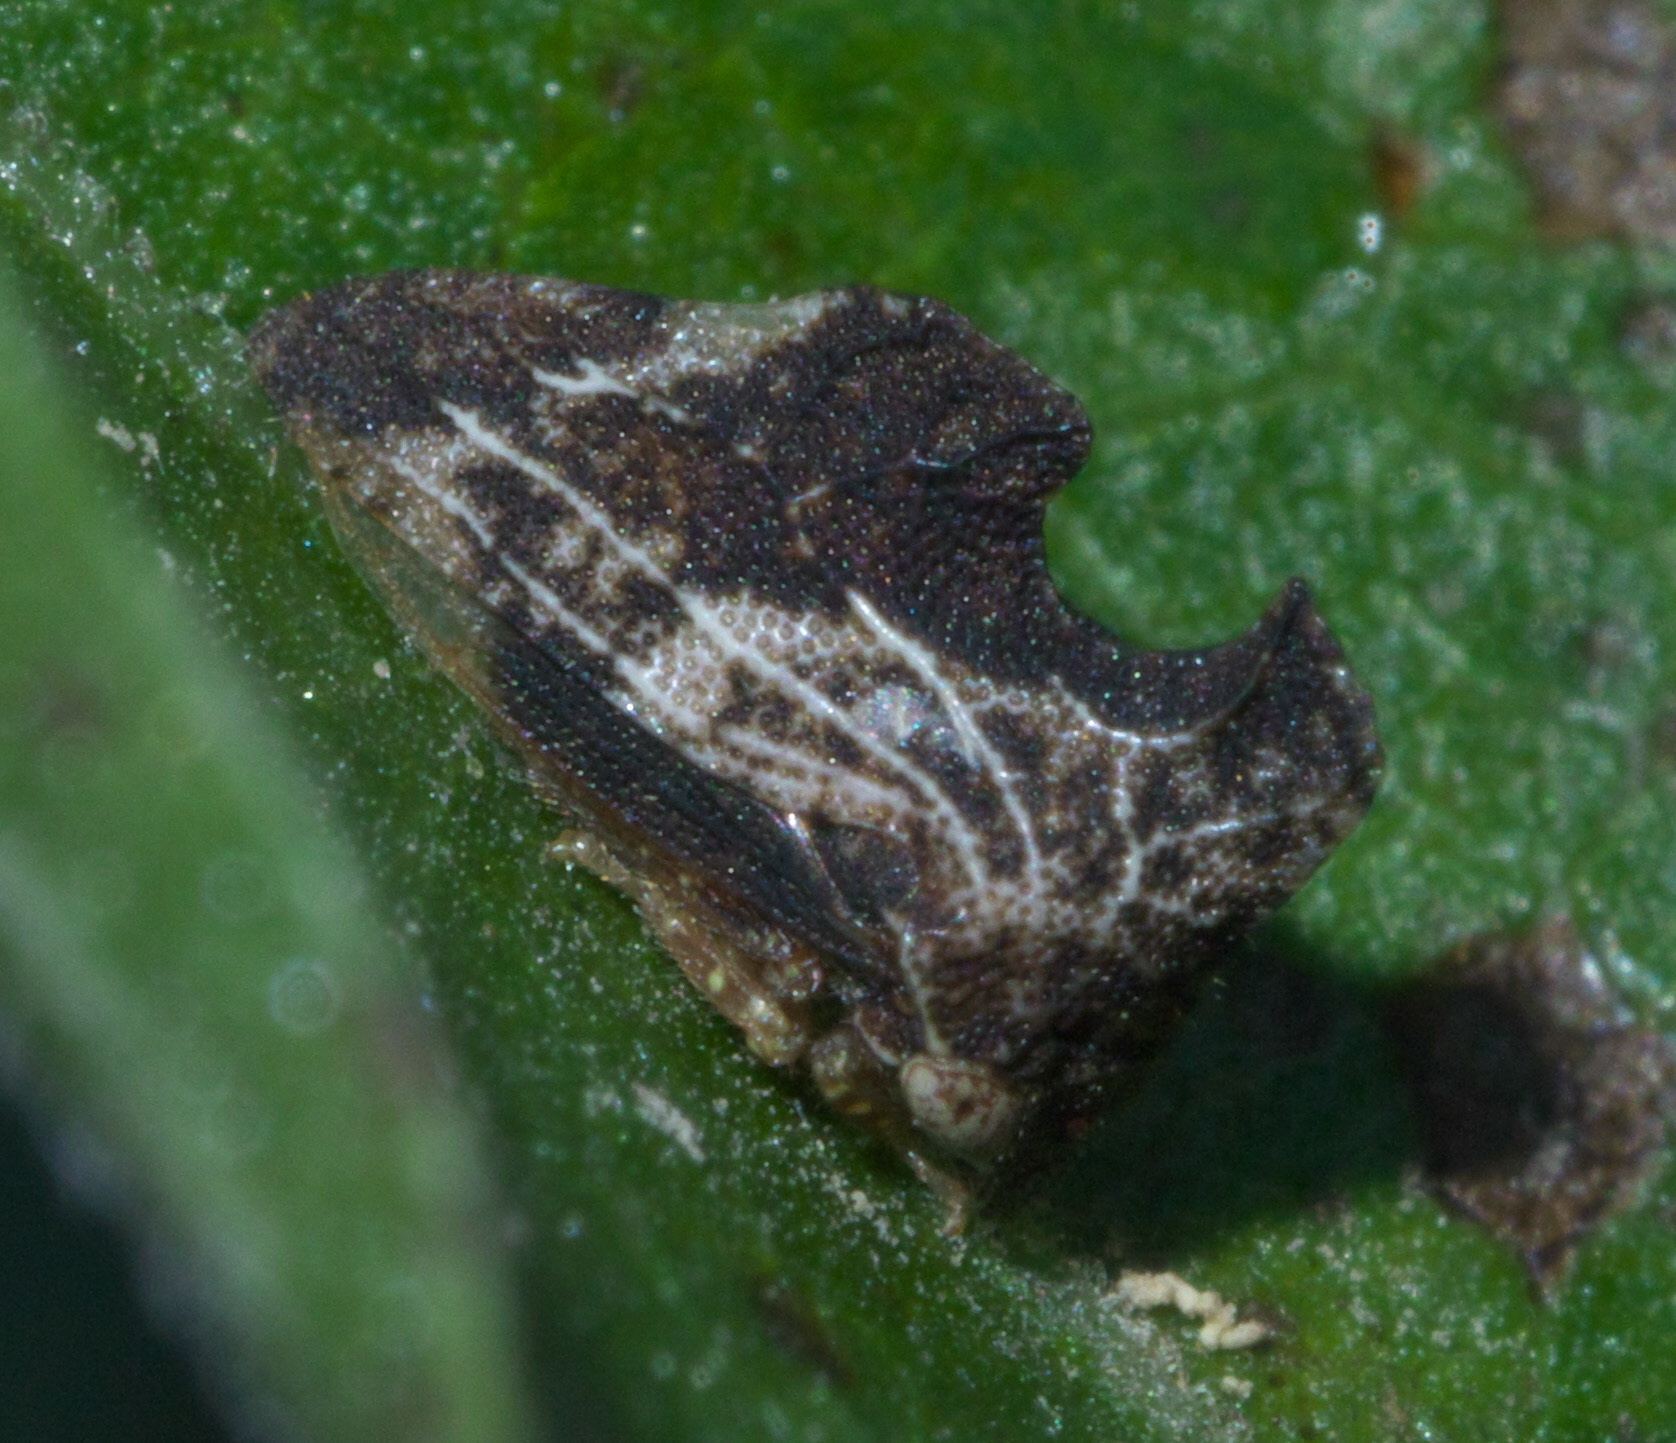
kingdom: Animalia
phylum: Arthropoda
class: Insecta
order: Hemiptera
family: Membracidae
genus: Entylia
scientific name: Entylia carinata
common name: Keeled treehopper
